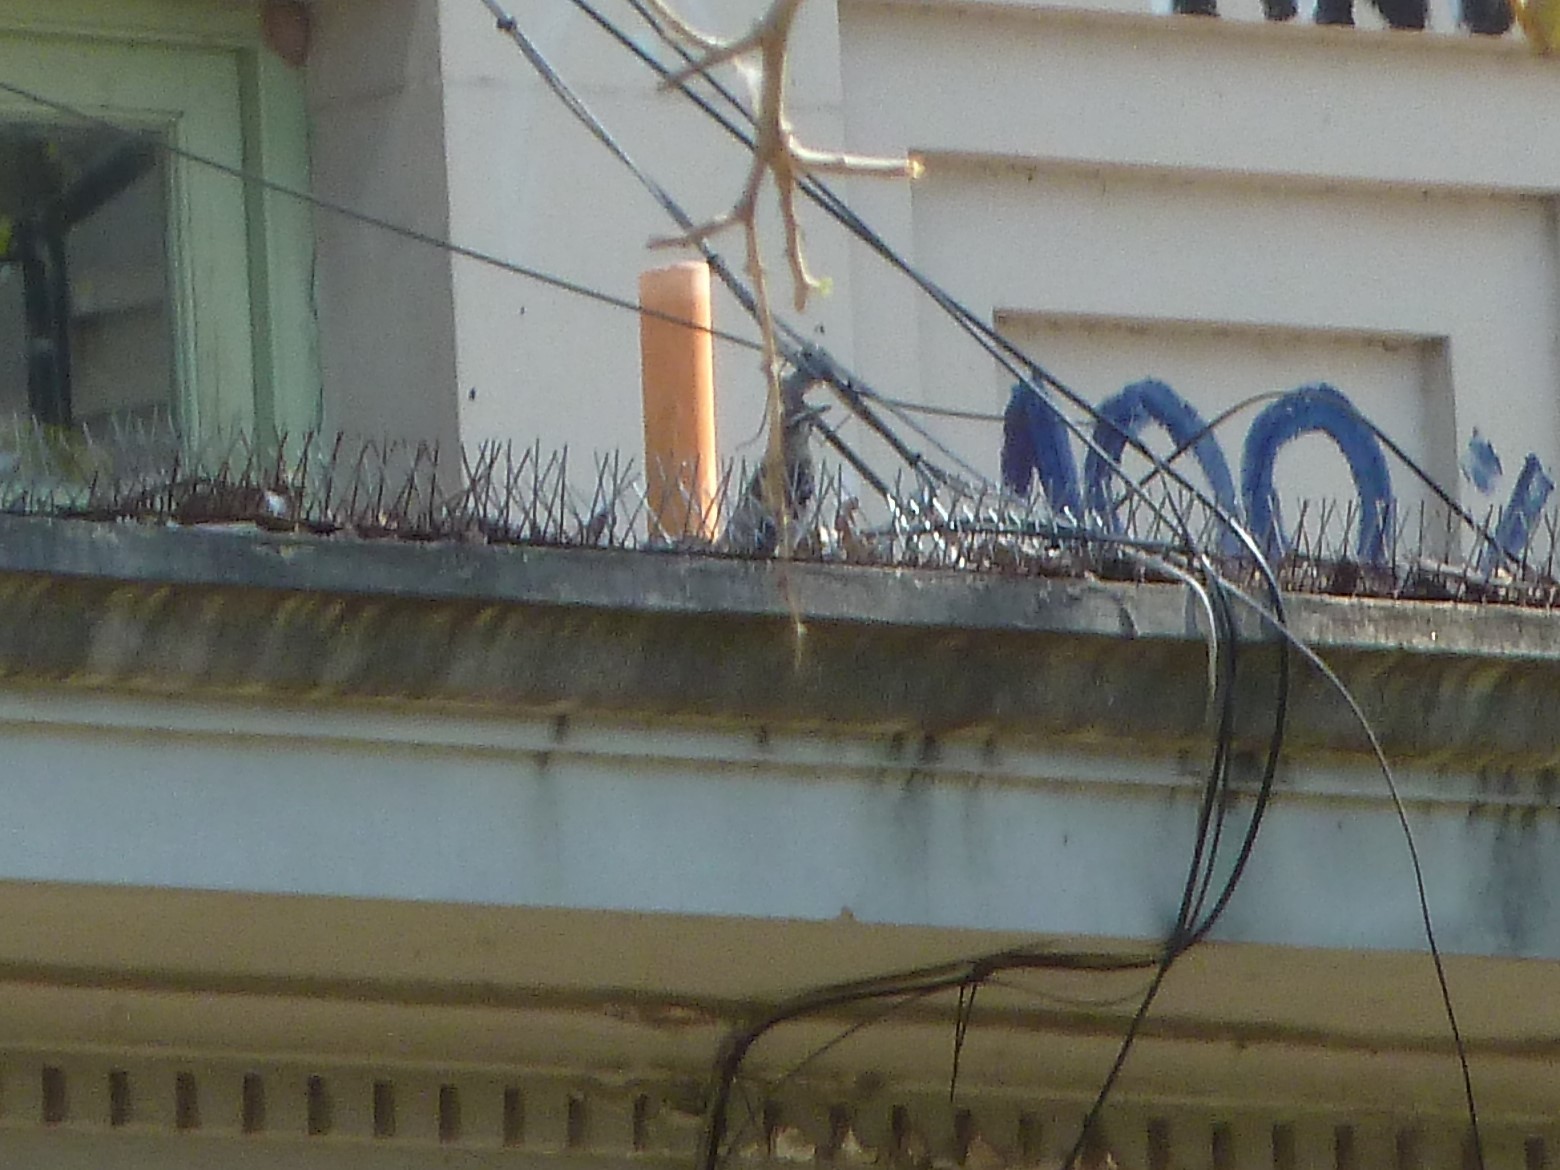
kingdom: Animalia
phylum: Chordata
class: Aves
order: Passeriformes
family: Mimidae
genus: Mimus
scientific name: Mimus saturninus
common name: Chalk-browed mockingbird
